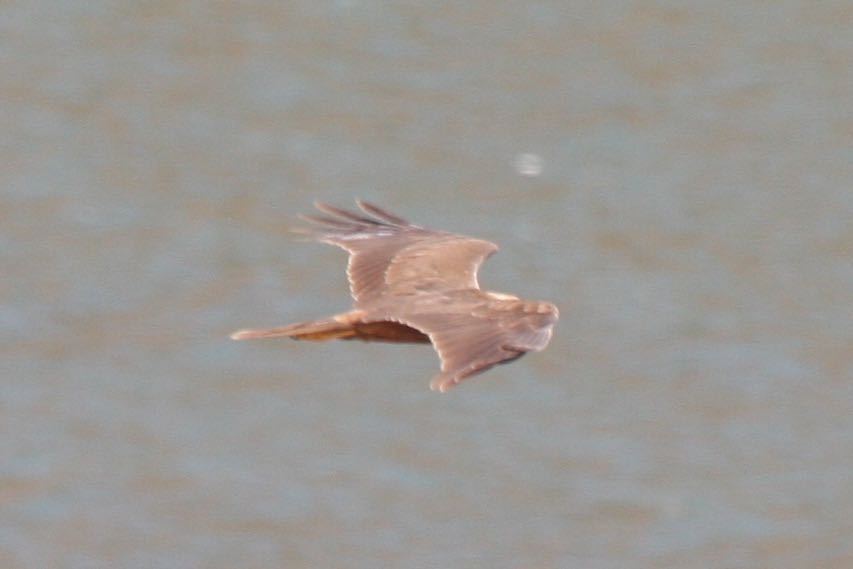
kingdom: Animalia
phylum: Chordata
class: Aves
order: Accipitriformes
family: Accipitridae
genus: Circus
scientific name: Circus aeruginosus
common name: Western marsh harrier
